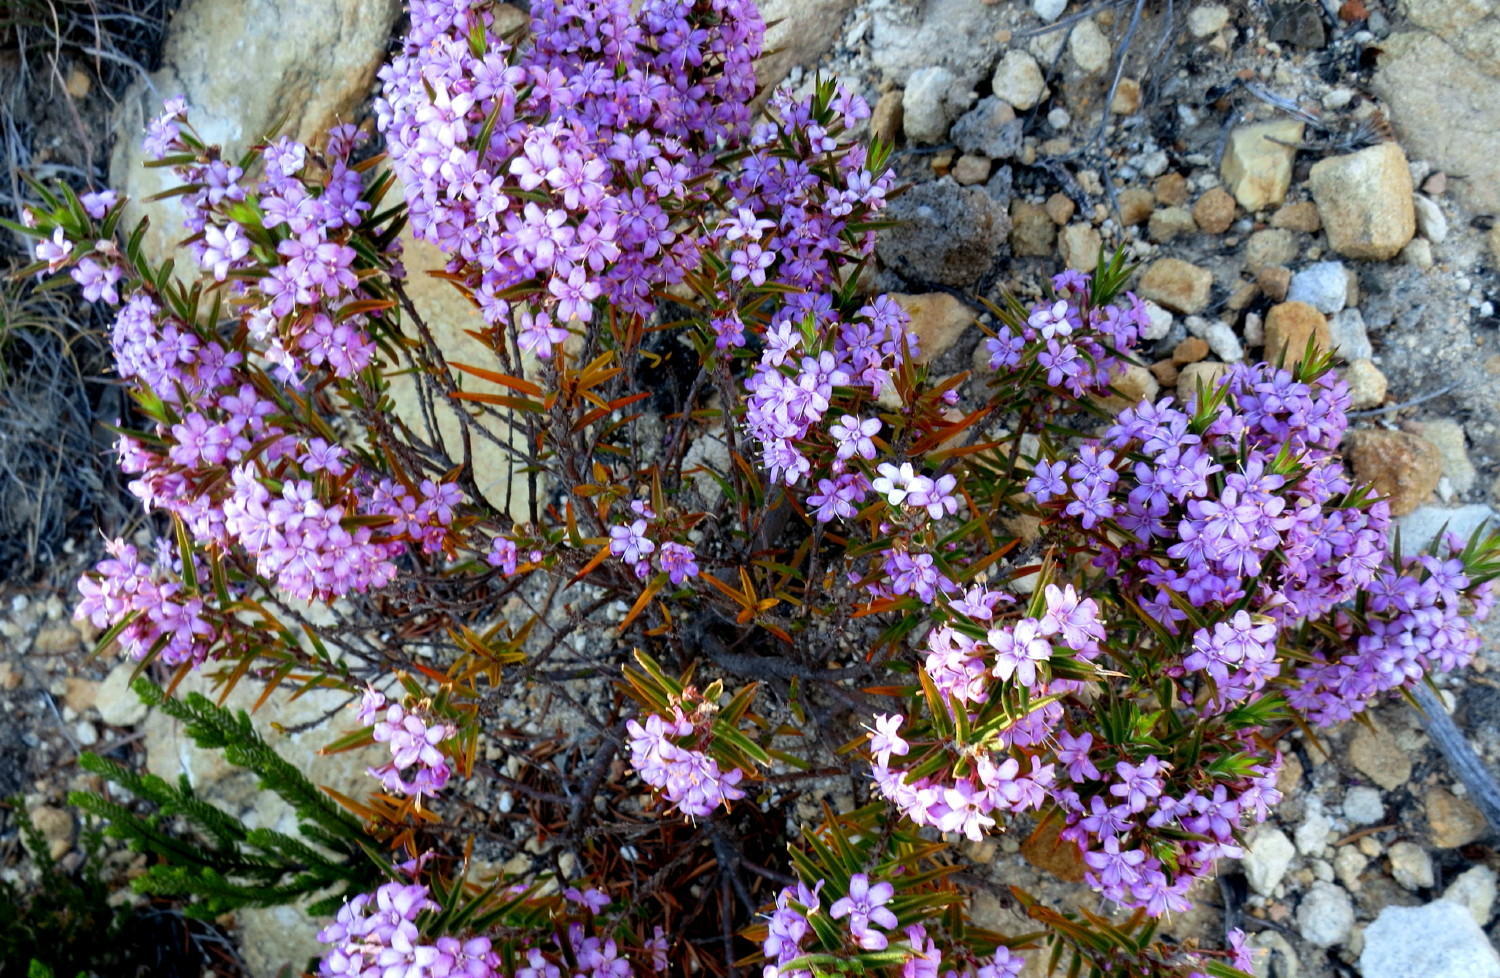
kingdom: Plantae
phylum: Tracheophyta
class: Magnoliopsida
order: Sapindales
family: Rutaceae
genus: Agathosma
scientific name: Agathosma pungens
